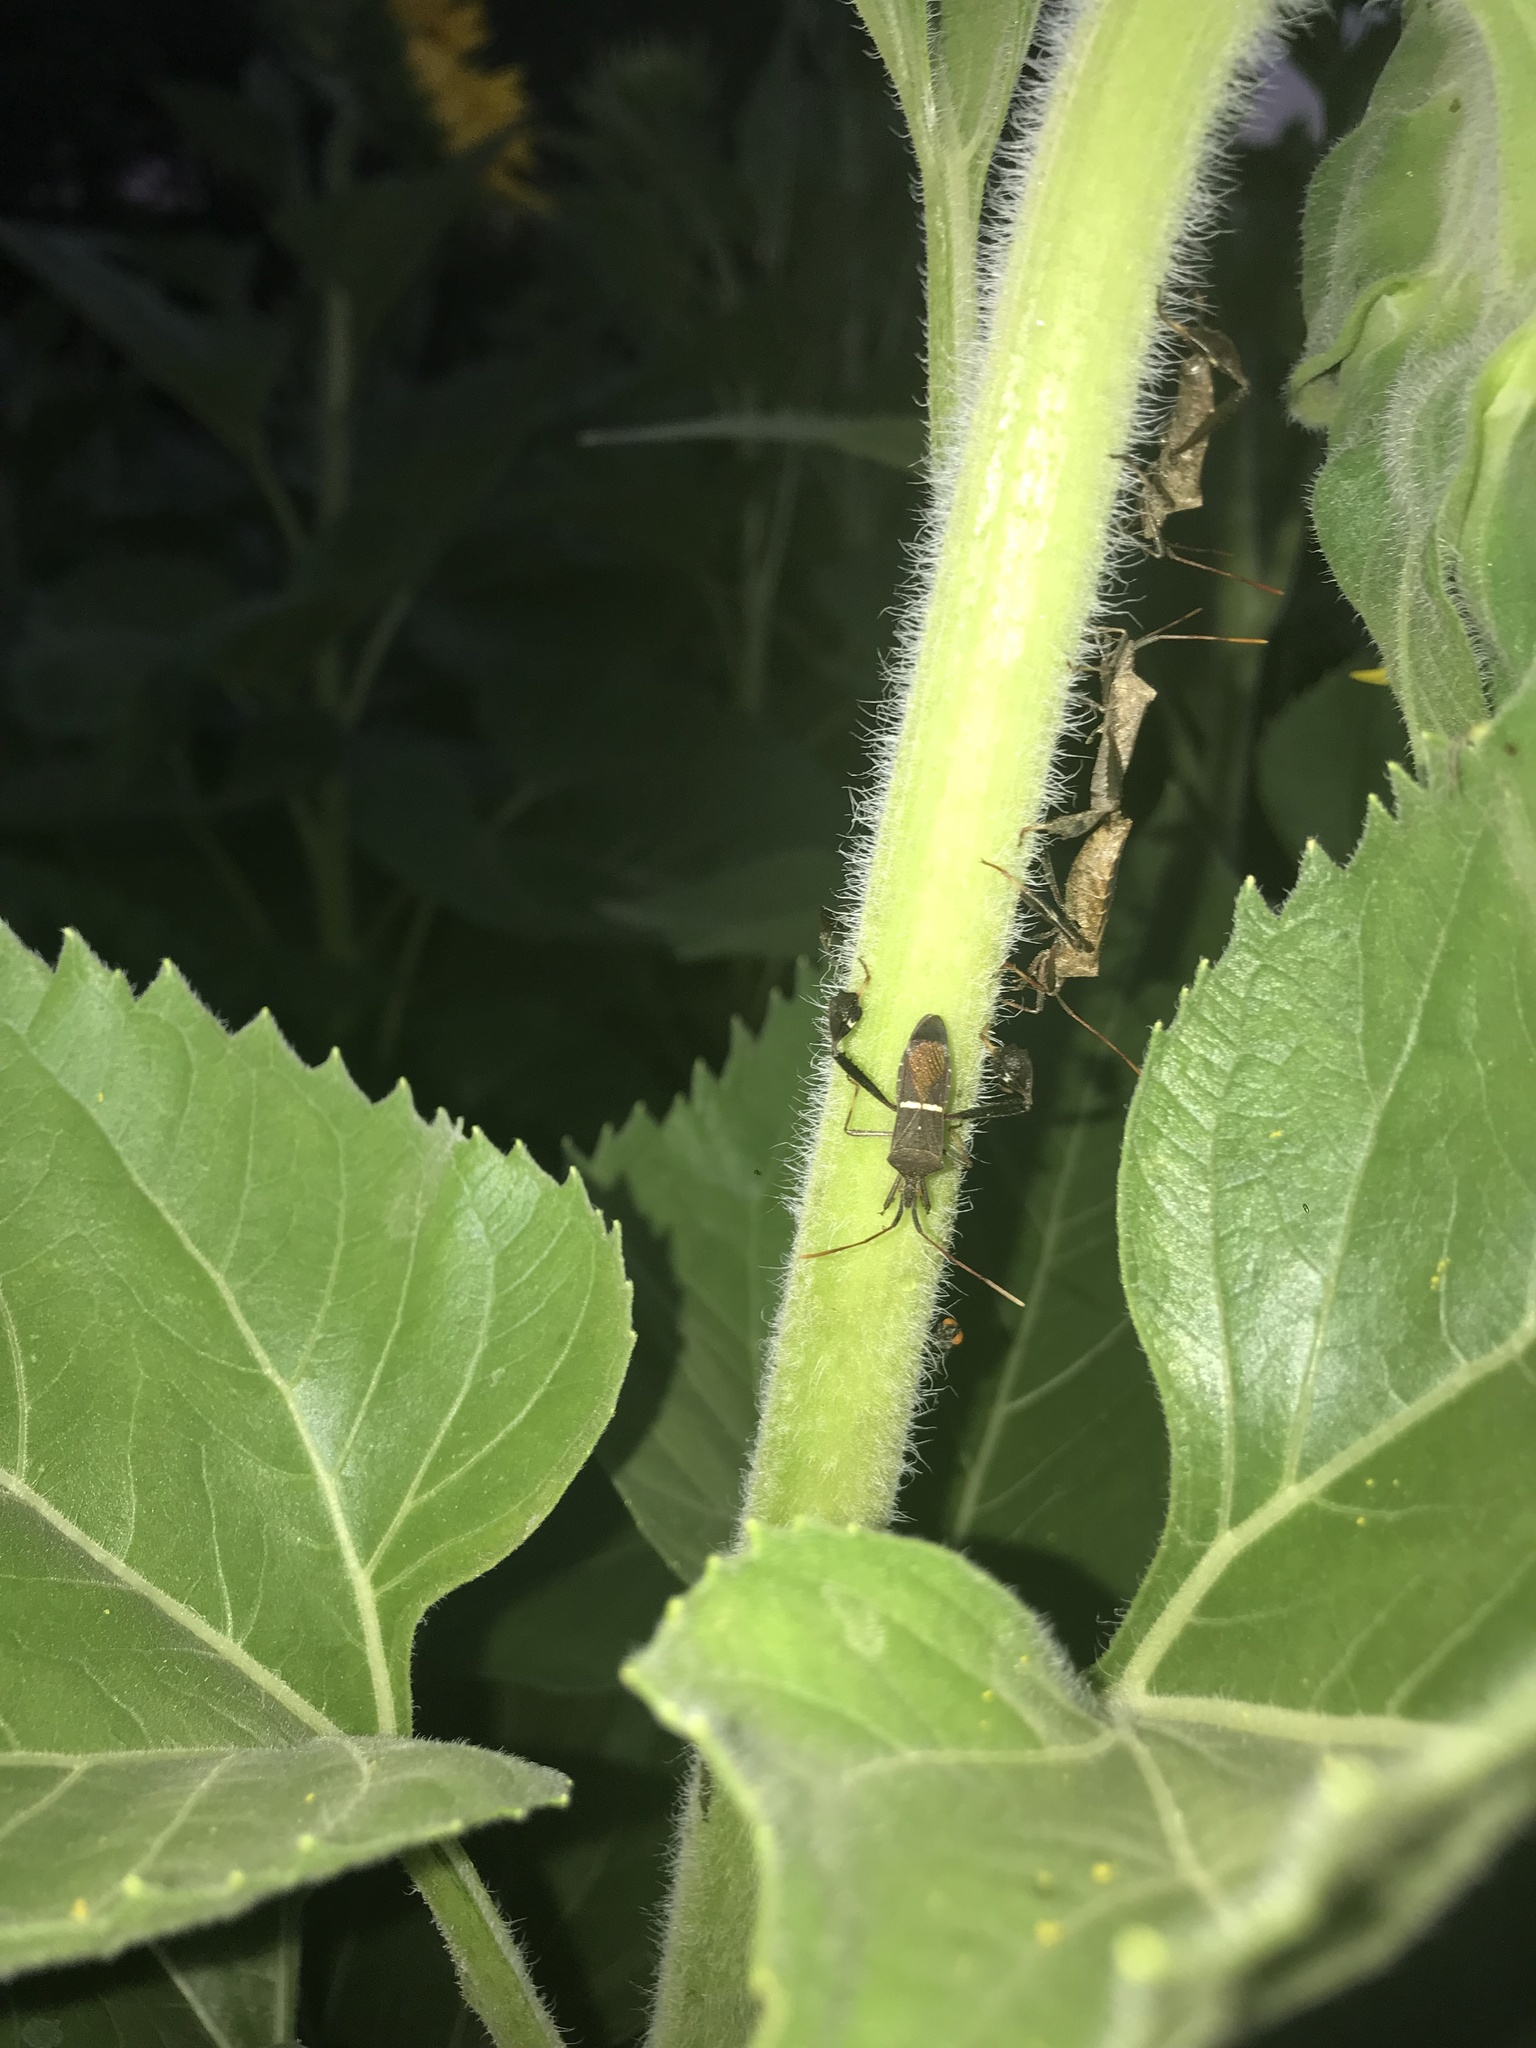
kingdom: Animalia
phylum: Arthropoda
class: Insecta
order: Hemiptera
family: Coreidae
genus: Leptoglossus
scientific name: Leptoglossus phyllopus
